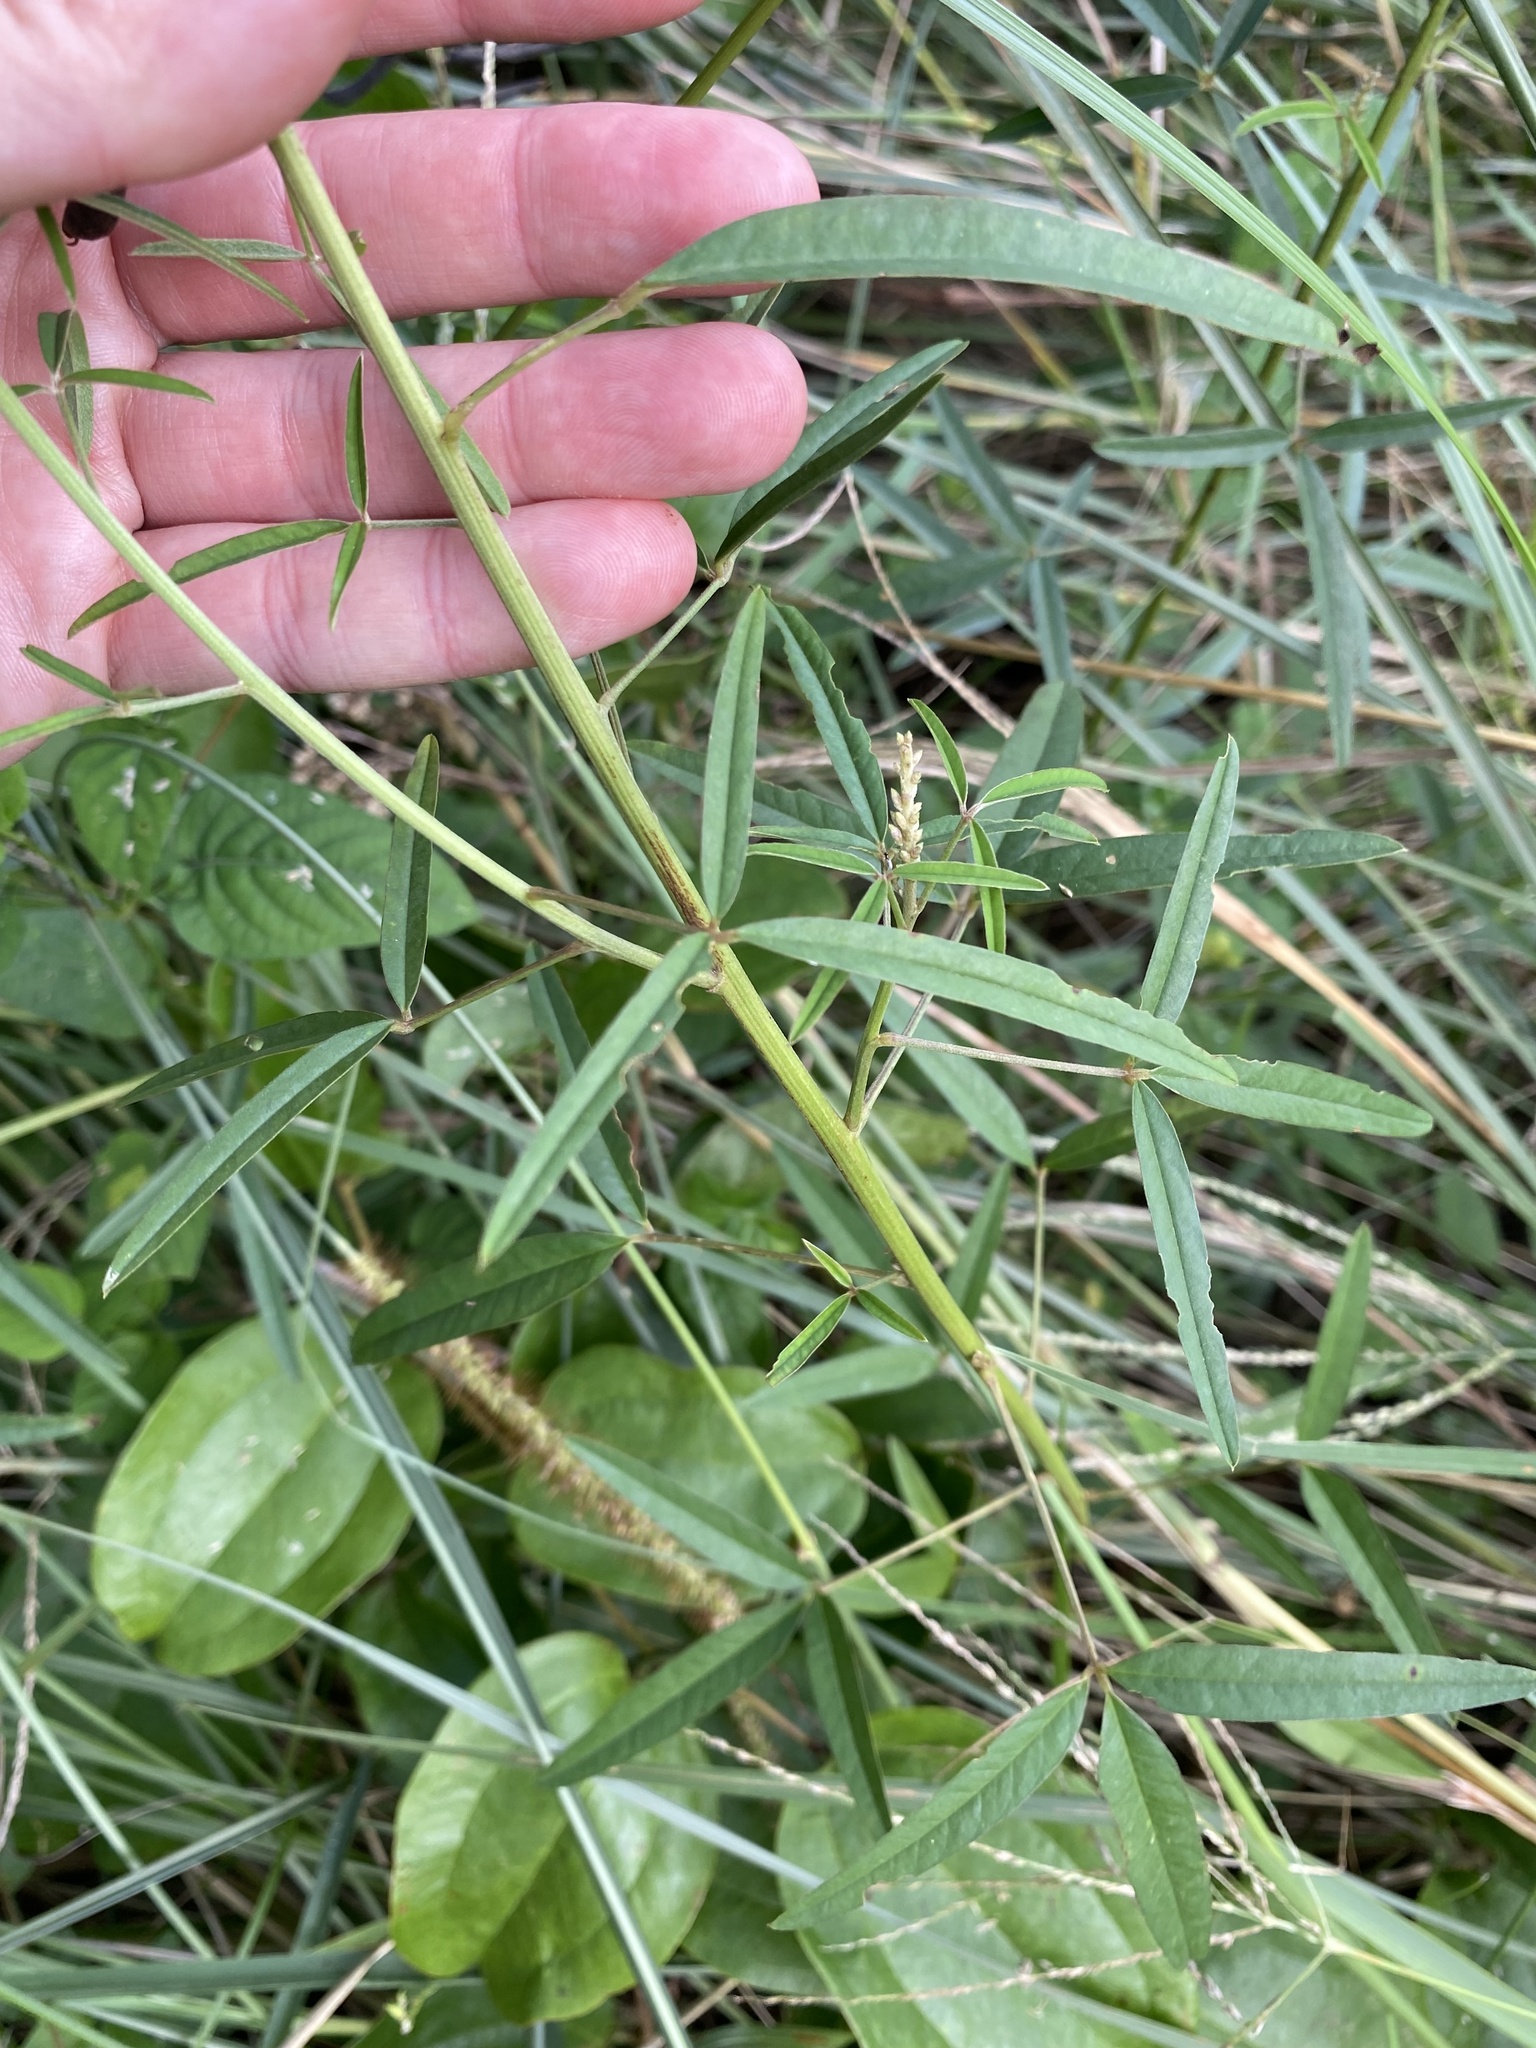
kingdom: Plantae
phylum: Tracheophyta
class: Magnoliopsida
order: Fabales
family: Fabaceae
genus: Crotalaria
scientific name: Crotalaria lanceolata
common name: Lanceleaf rattlebox
